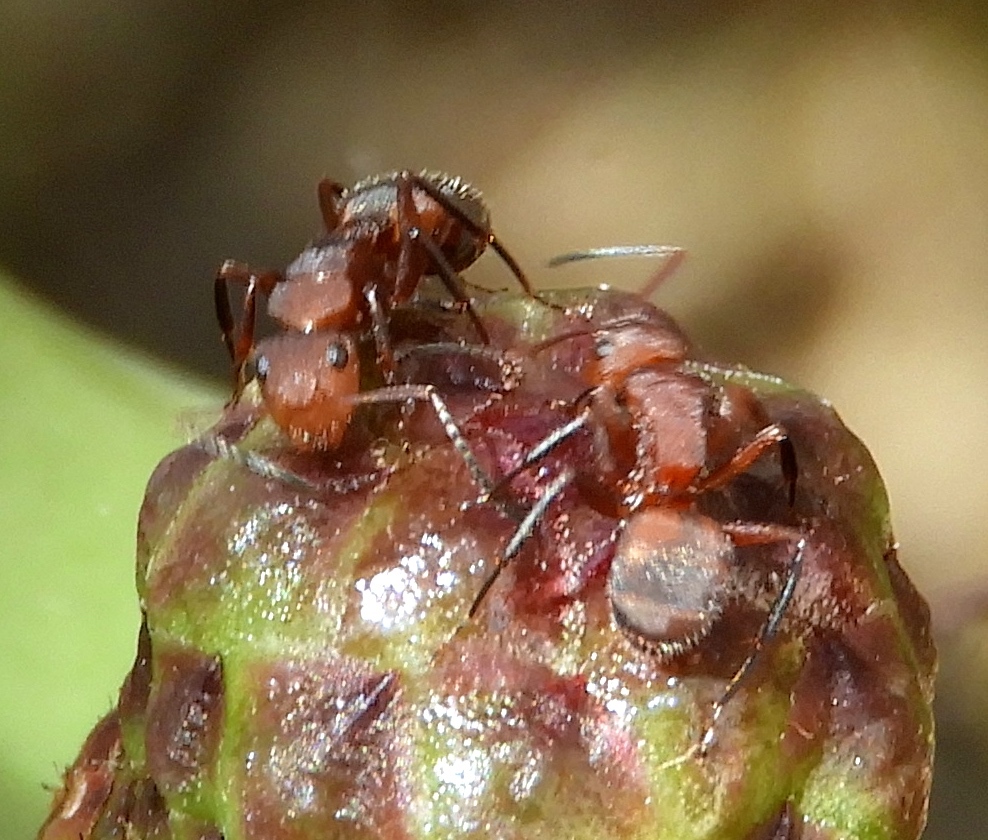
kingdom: Animalia
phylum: Arthropoda
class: Insecta
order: Hymenoptera
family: Formicidae
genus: Camponotus
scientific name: Camponotus rectangularis
